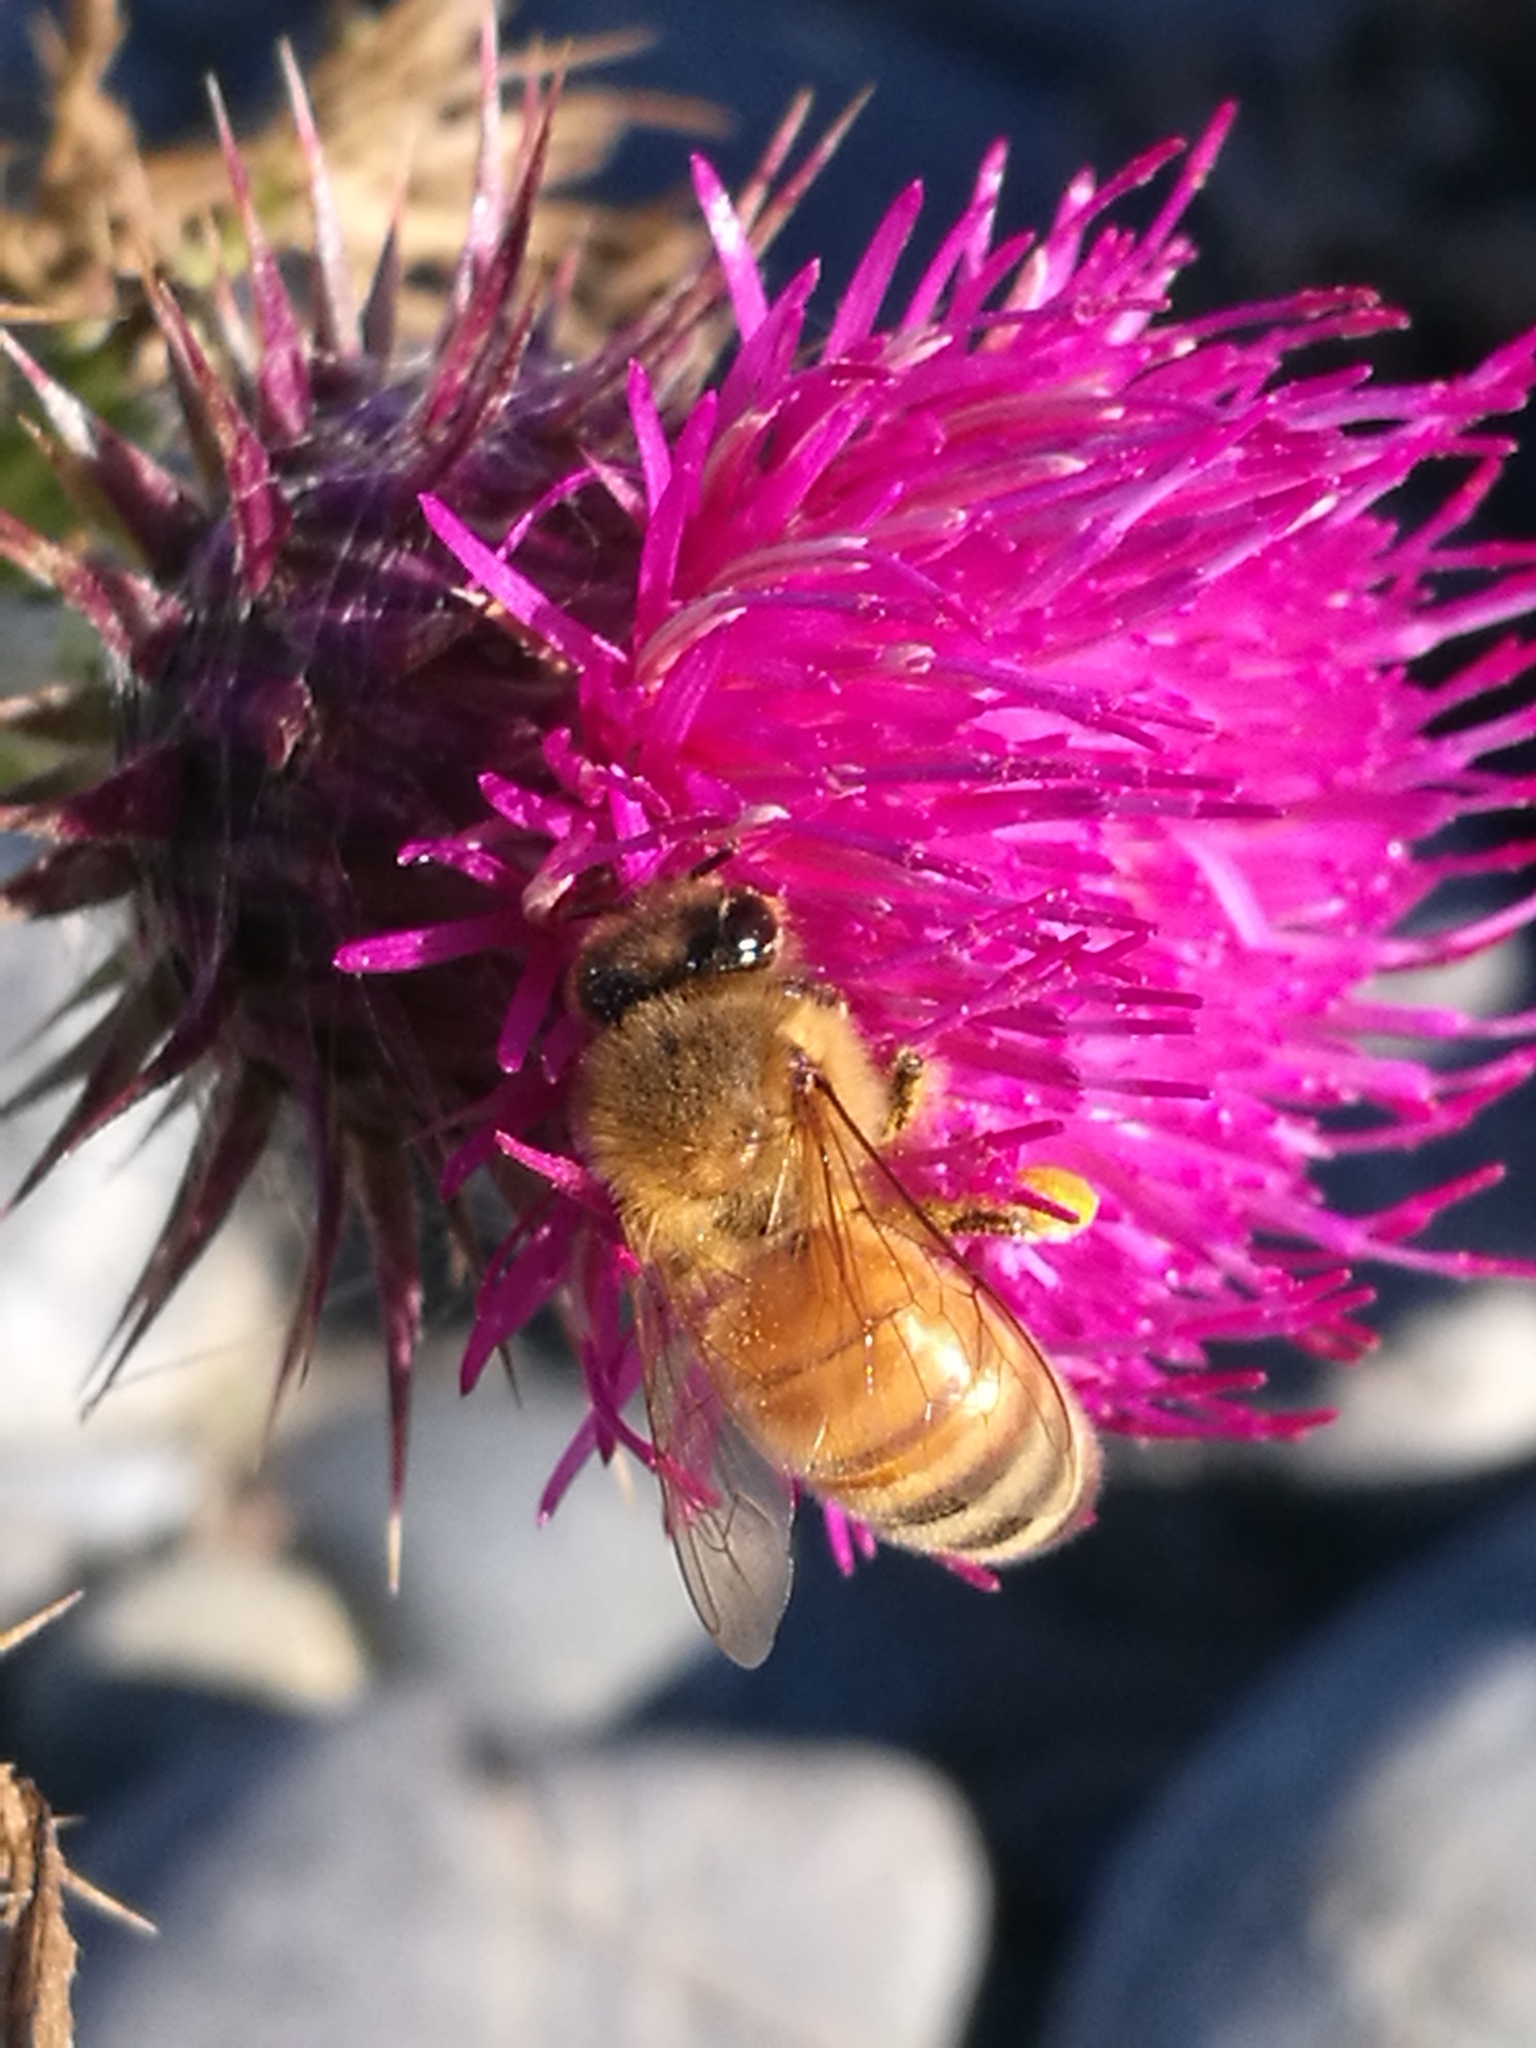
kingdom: Animalia
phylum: Arthropoda
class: Insecta
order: Hymenoptera
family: Apidae
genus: Apis
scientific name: Apis mellifera
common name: Honey bee
